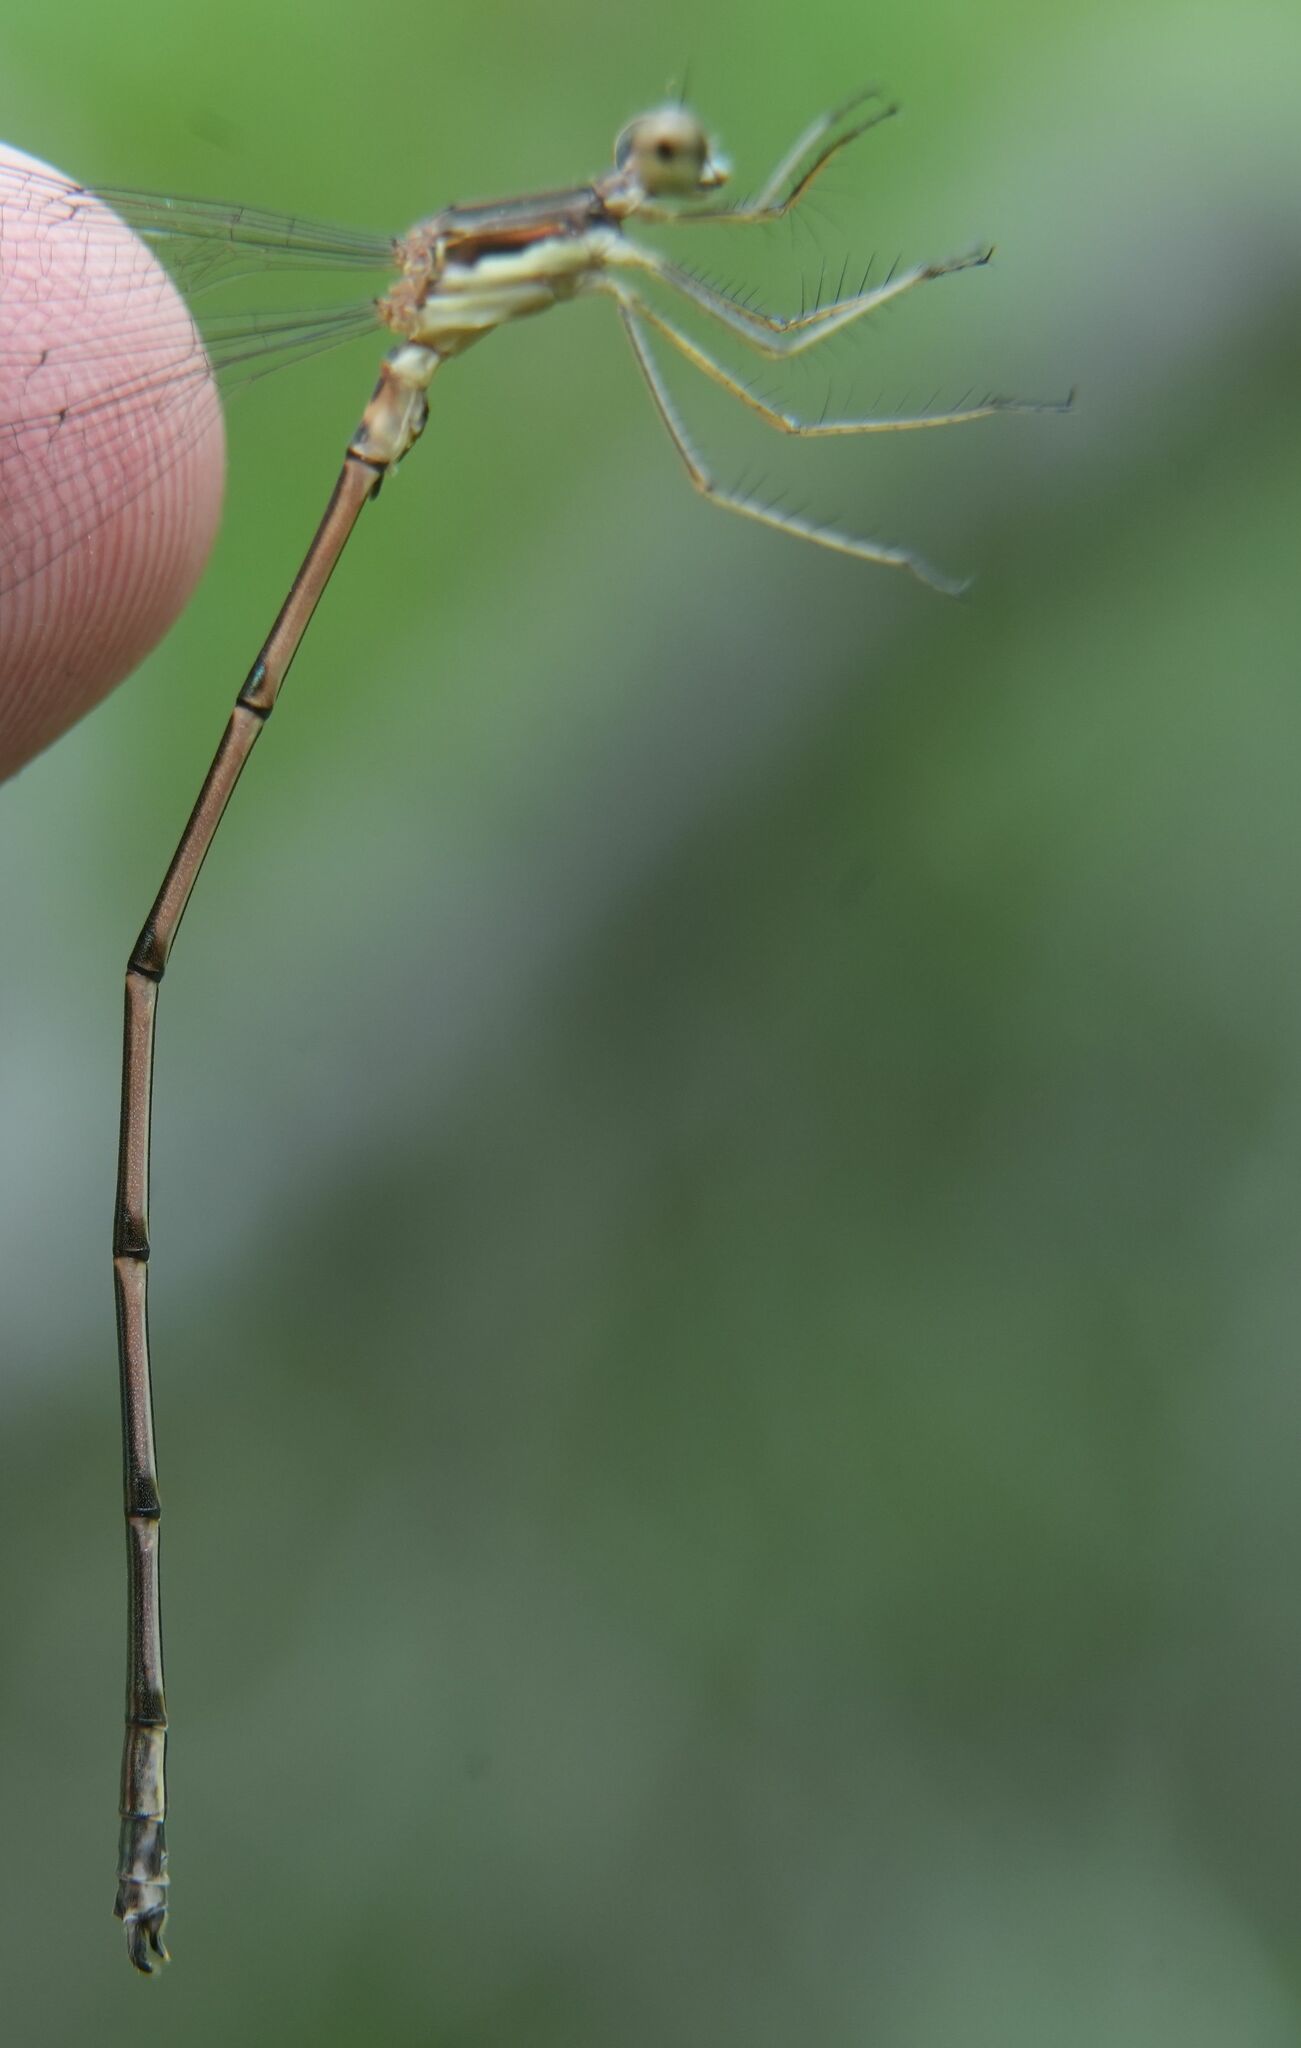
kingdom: Animalia
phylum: Arthropoda
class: Insecta
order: Odonata
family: Lestidae
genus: Lestes
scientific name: Lestes rectangularis
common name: Slender spreadwing
